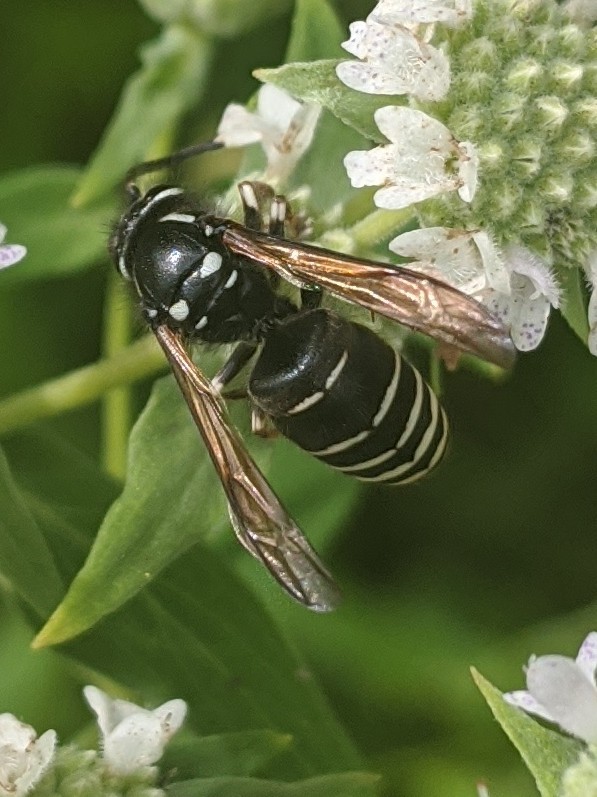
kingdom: Animalia
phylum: Arthropoda
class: Insecta
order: Hymenoptera
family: Vespidae
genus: Dolichovespula
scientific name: Dolichovespula adulterina
